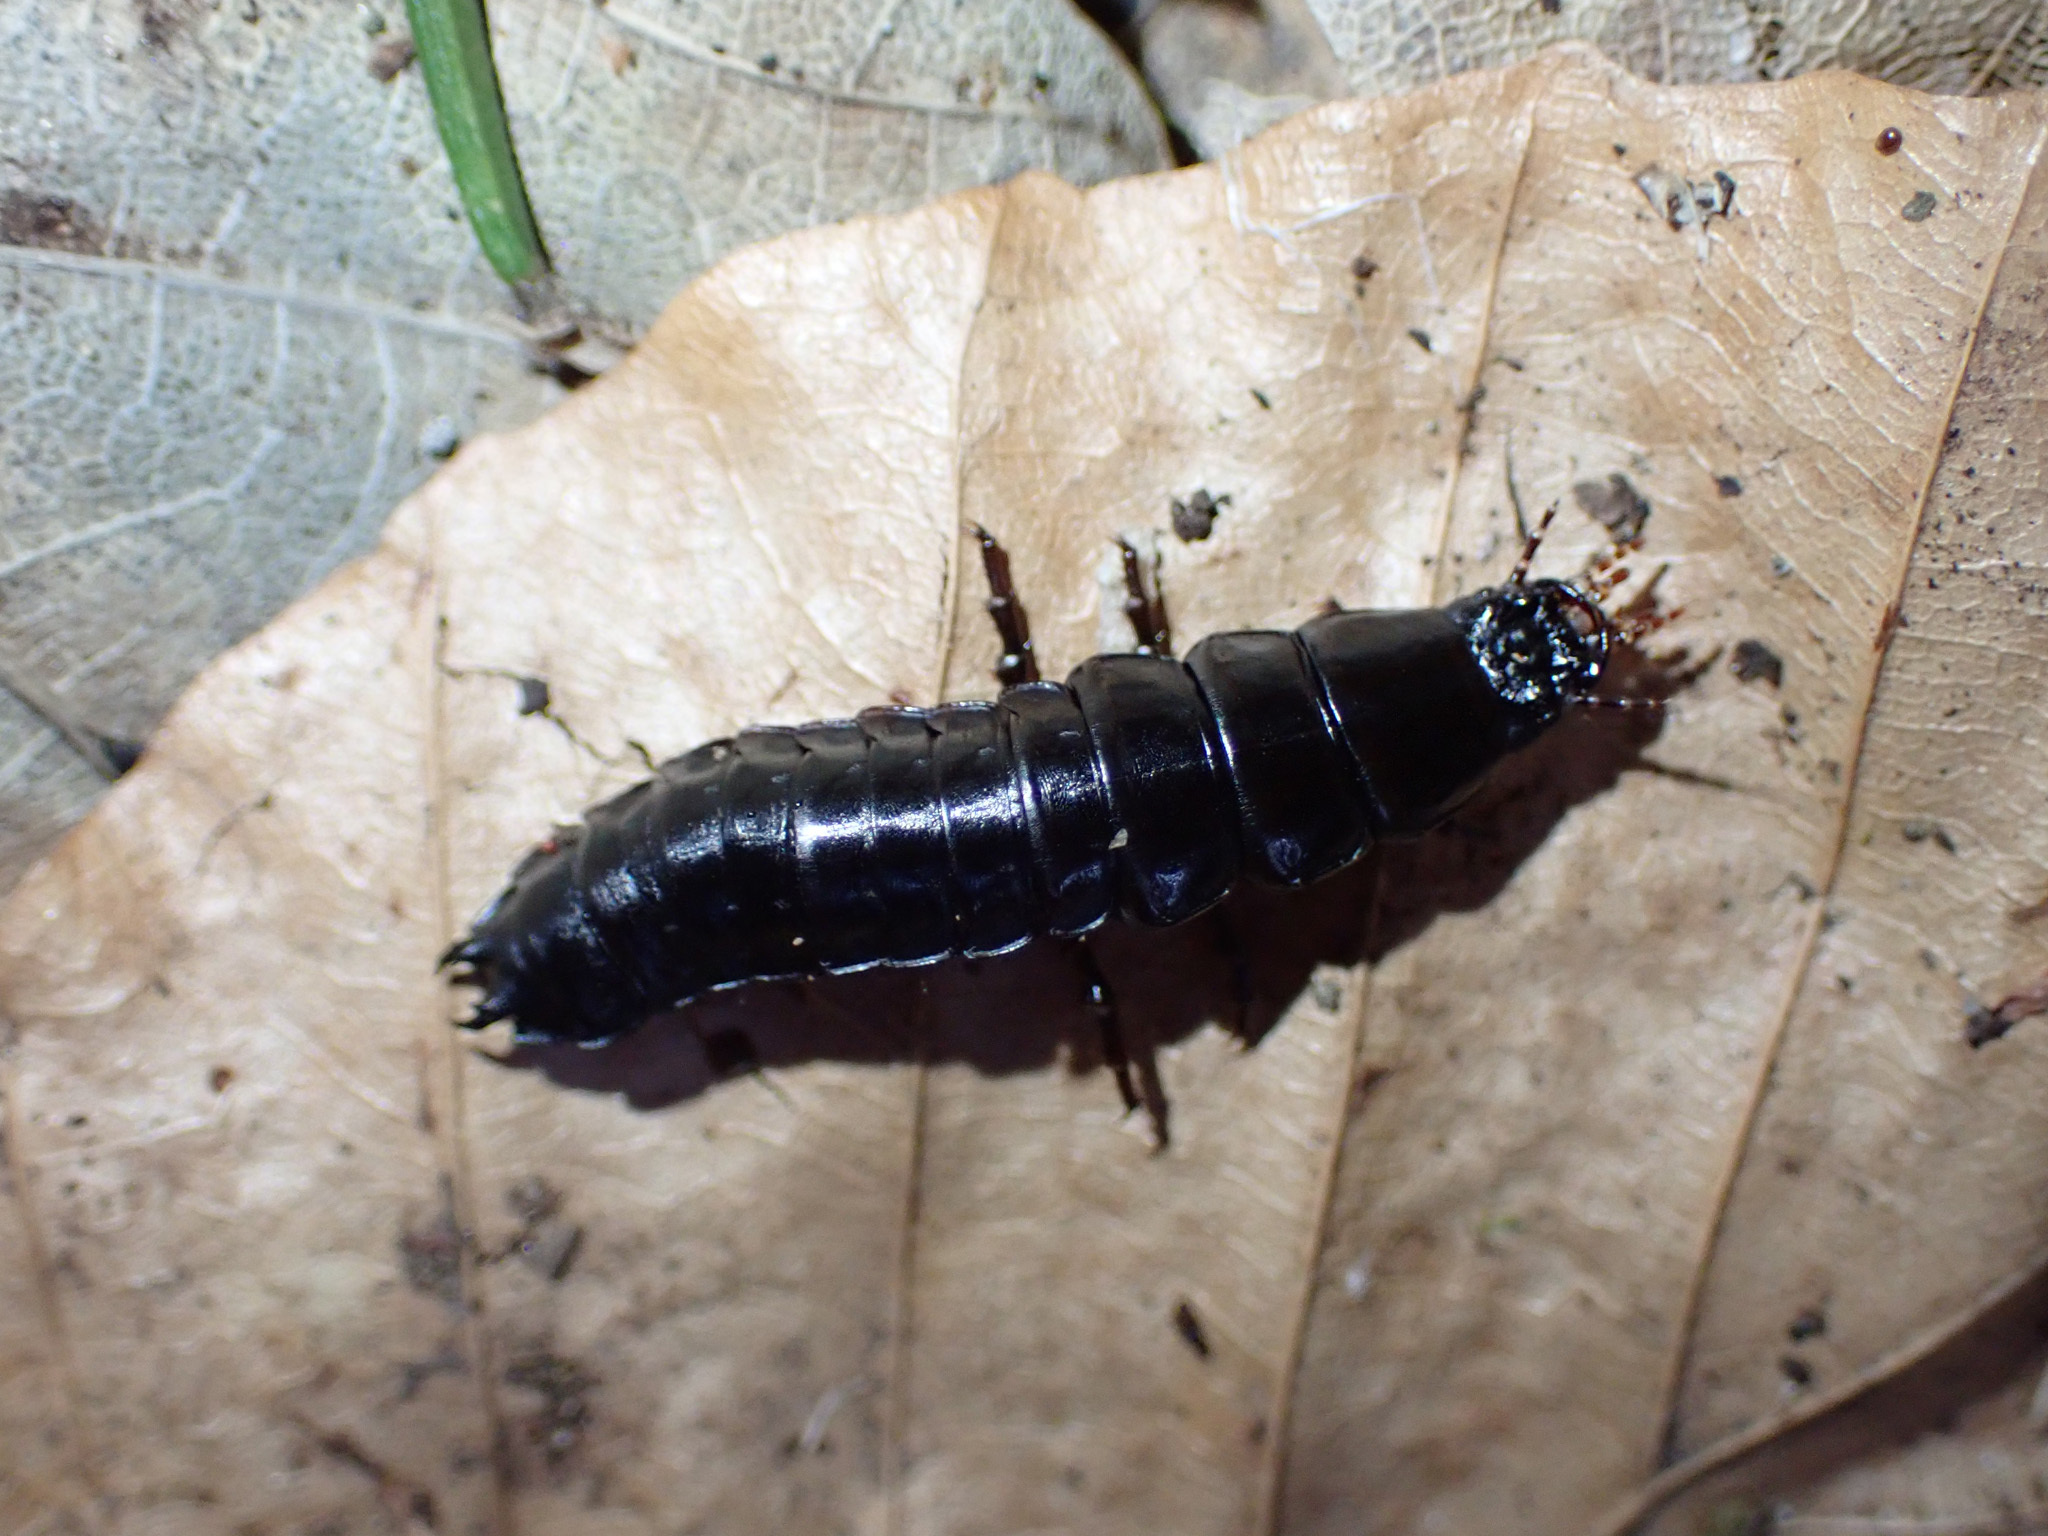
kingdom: Animalia
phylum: Arthropoda
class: Insecta
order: Coleoptera
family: Carabidae
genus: Carabus
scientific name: Carabus
